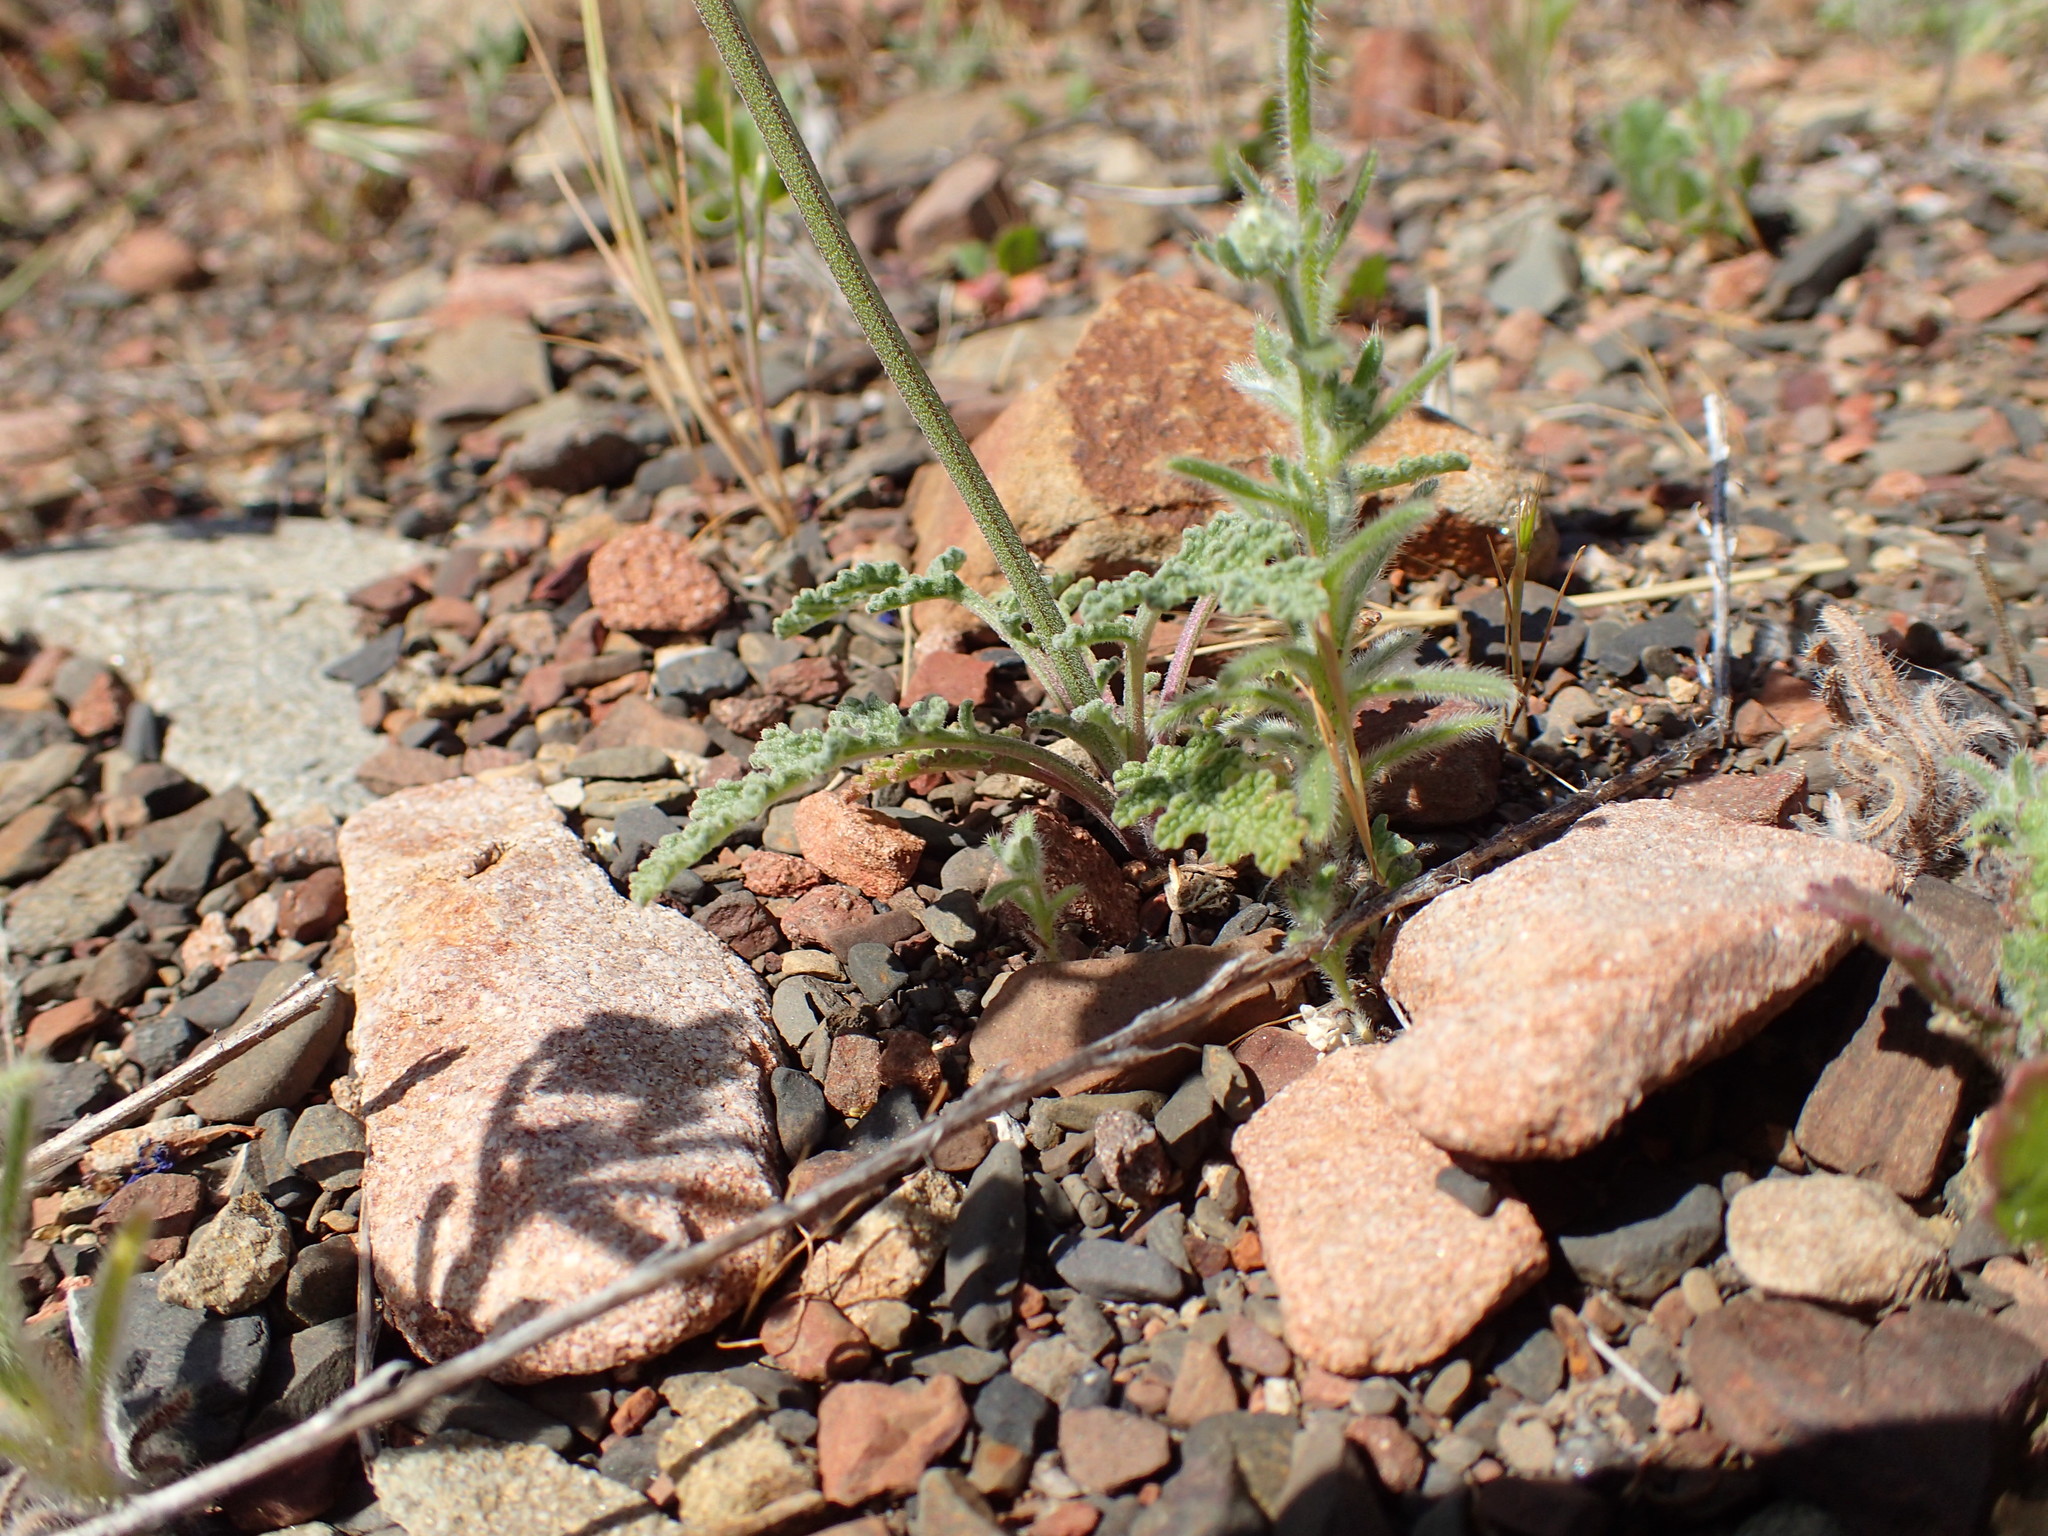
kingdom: Plantae
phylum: Tracheophyta
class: Magnoliopsida
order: Lamiales
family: Lamiaceae
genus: Salvia
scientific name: Salvia columbariae
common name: Chia
